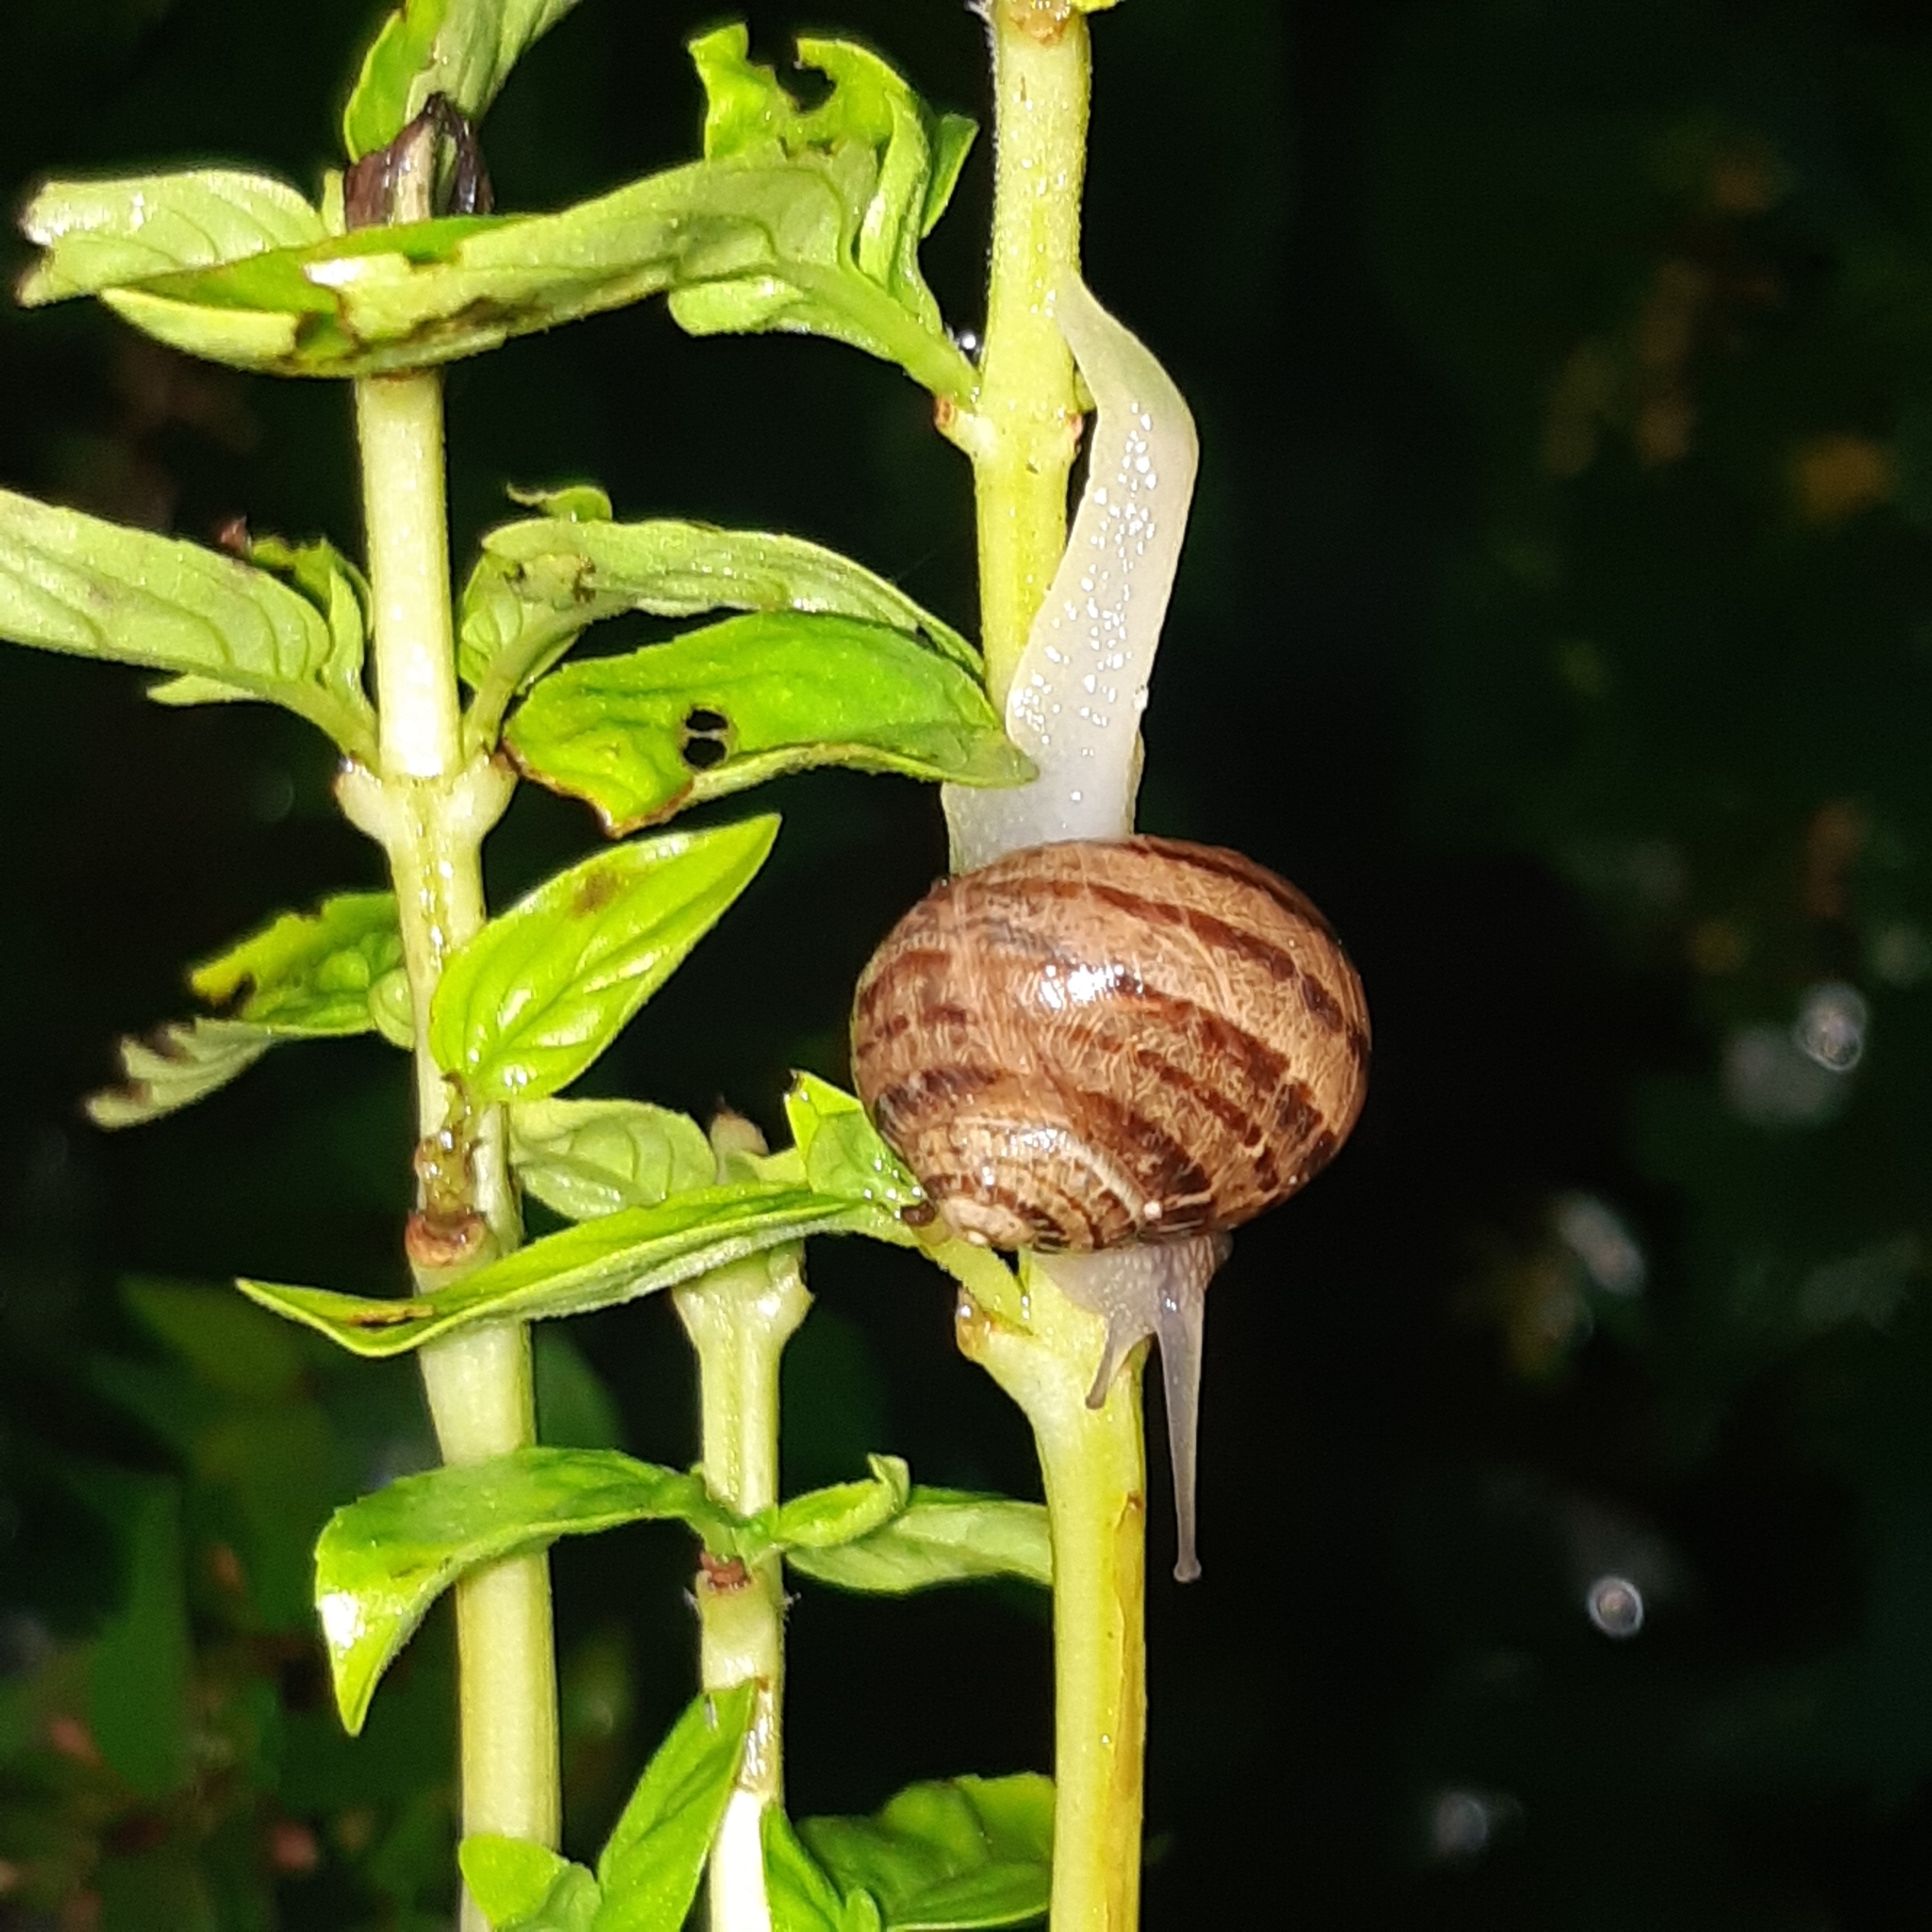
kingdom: Animalia
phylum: Mollusca
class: Gastropoda
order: Stylommatophora
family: Helicidae
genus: Cornu
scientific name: Cornu aspersum
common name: Brown garden snail
